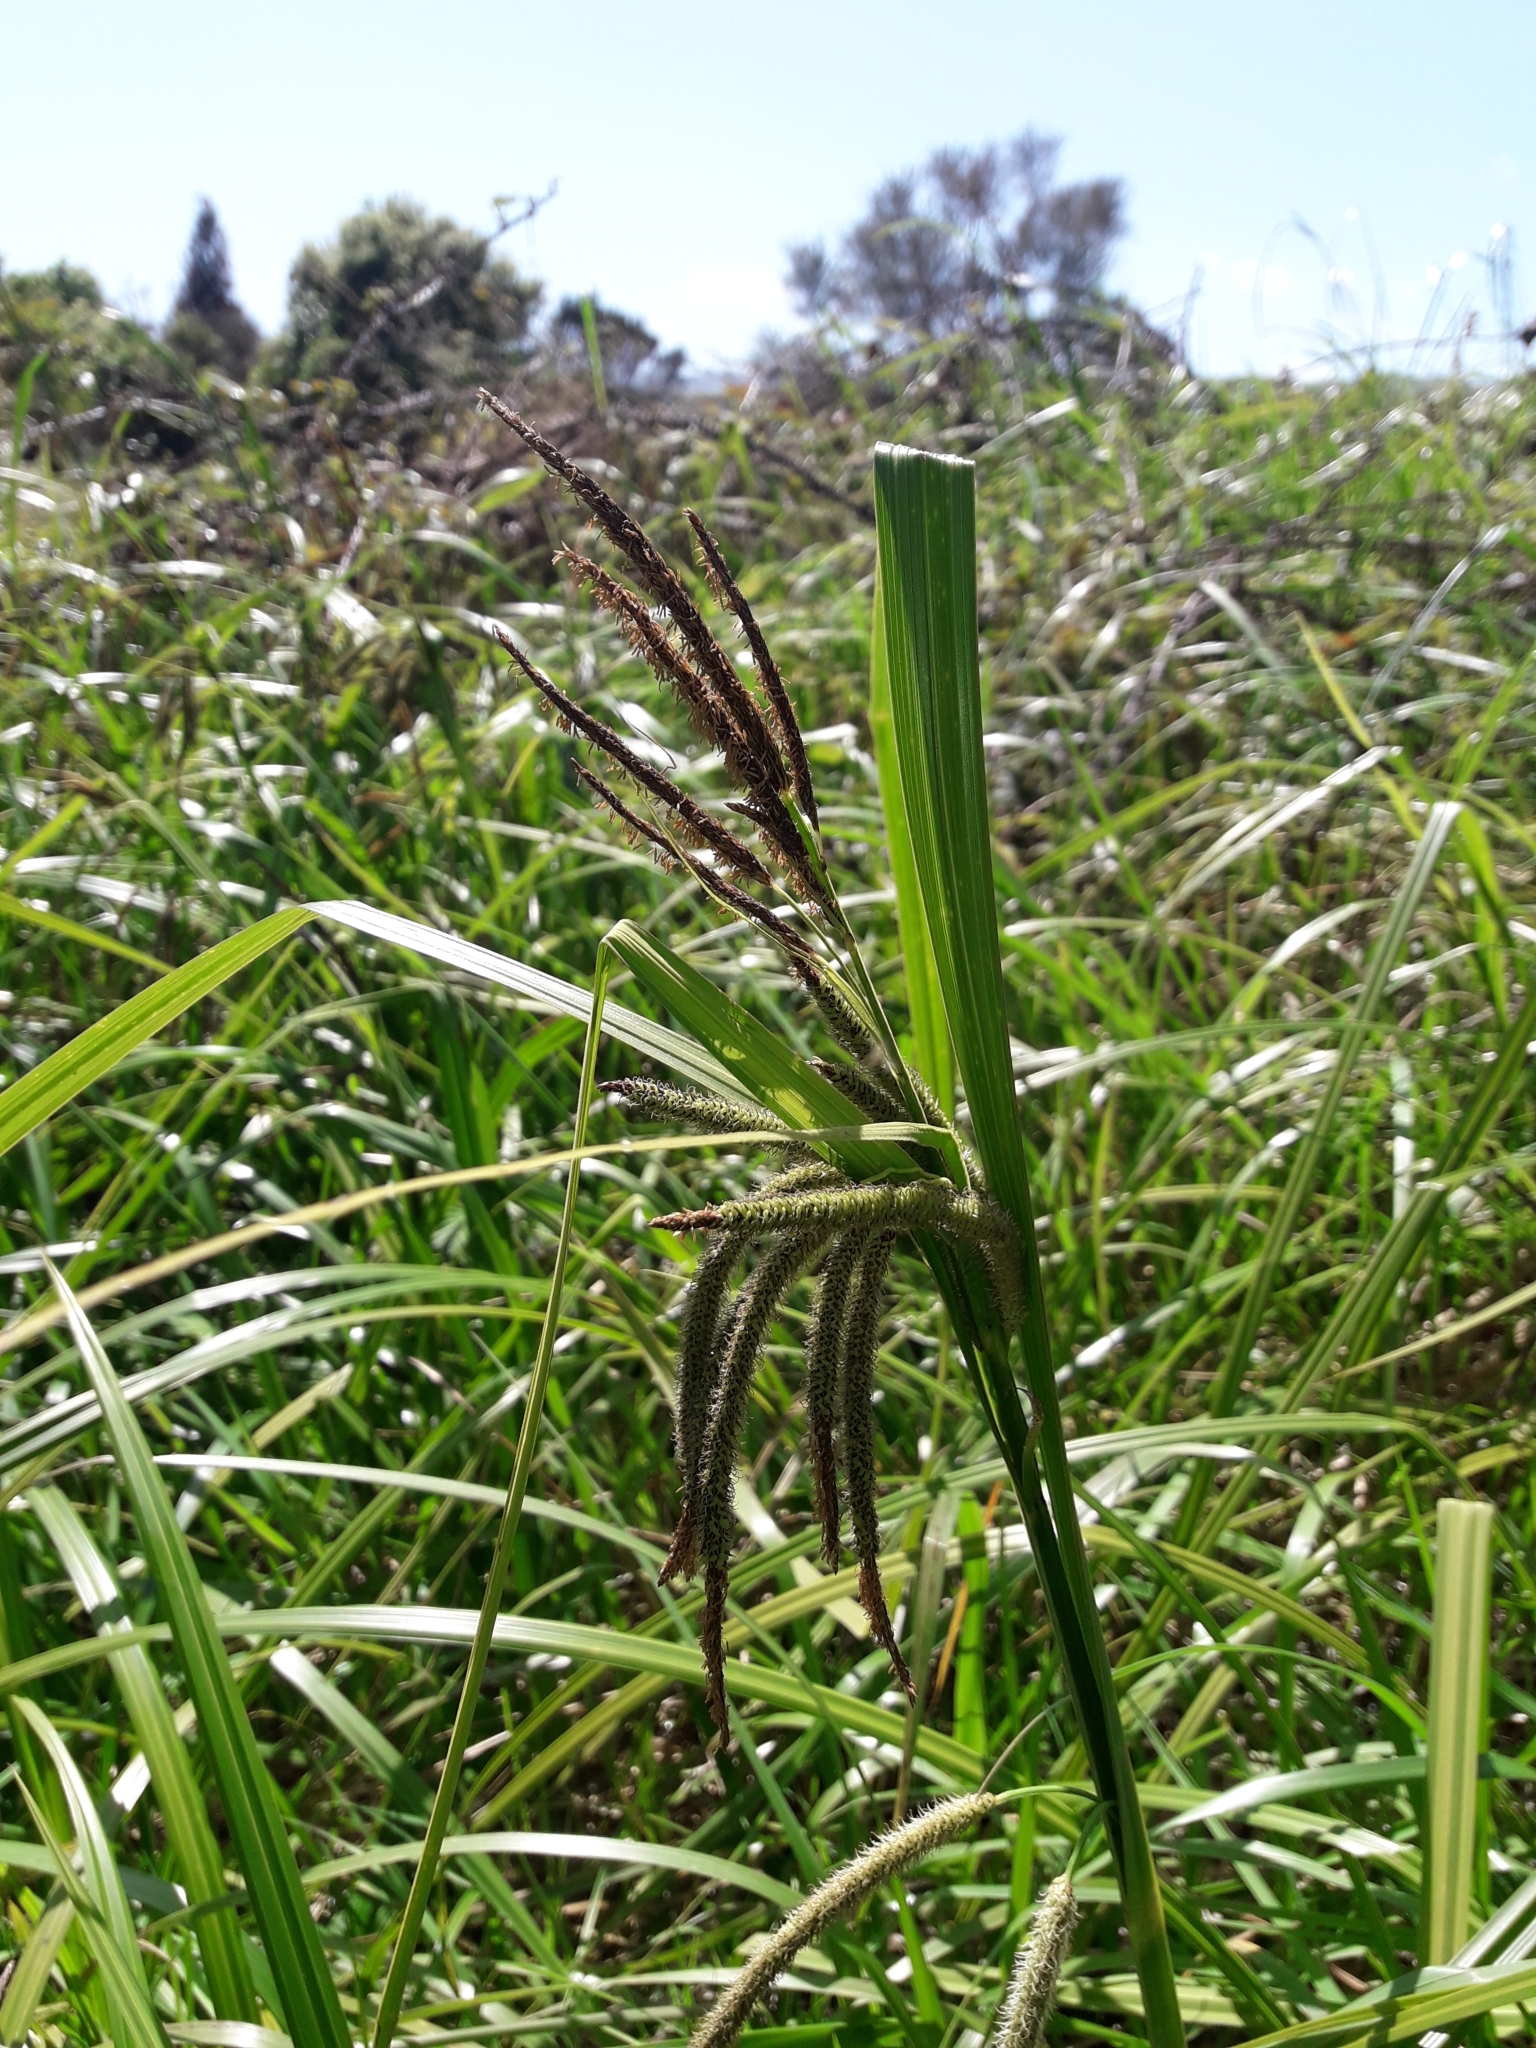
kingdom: Plantae
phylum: Tracheophyta
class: Liliopsida
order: Poales
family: Cyperaceae
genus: Carex
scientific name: Carex geminata
